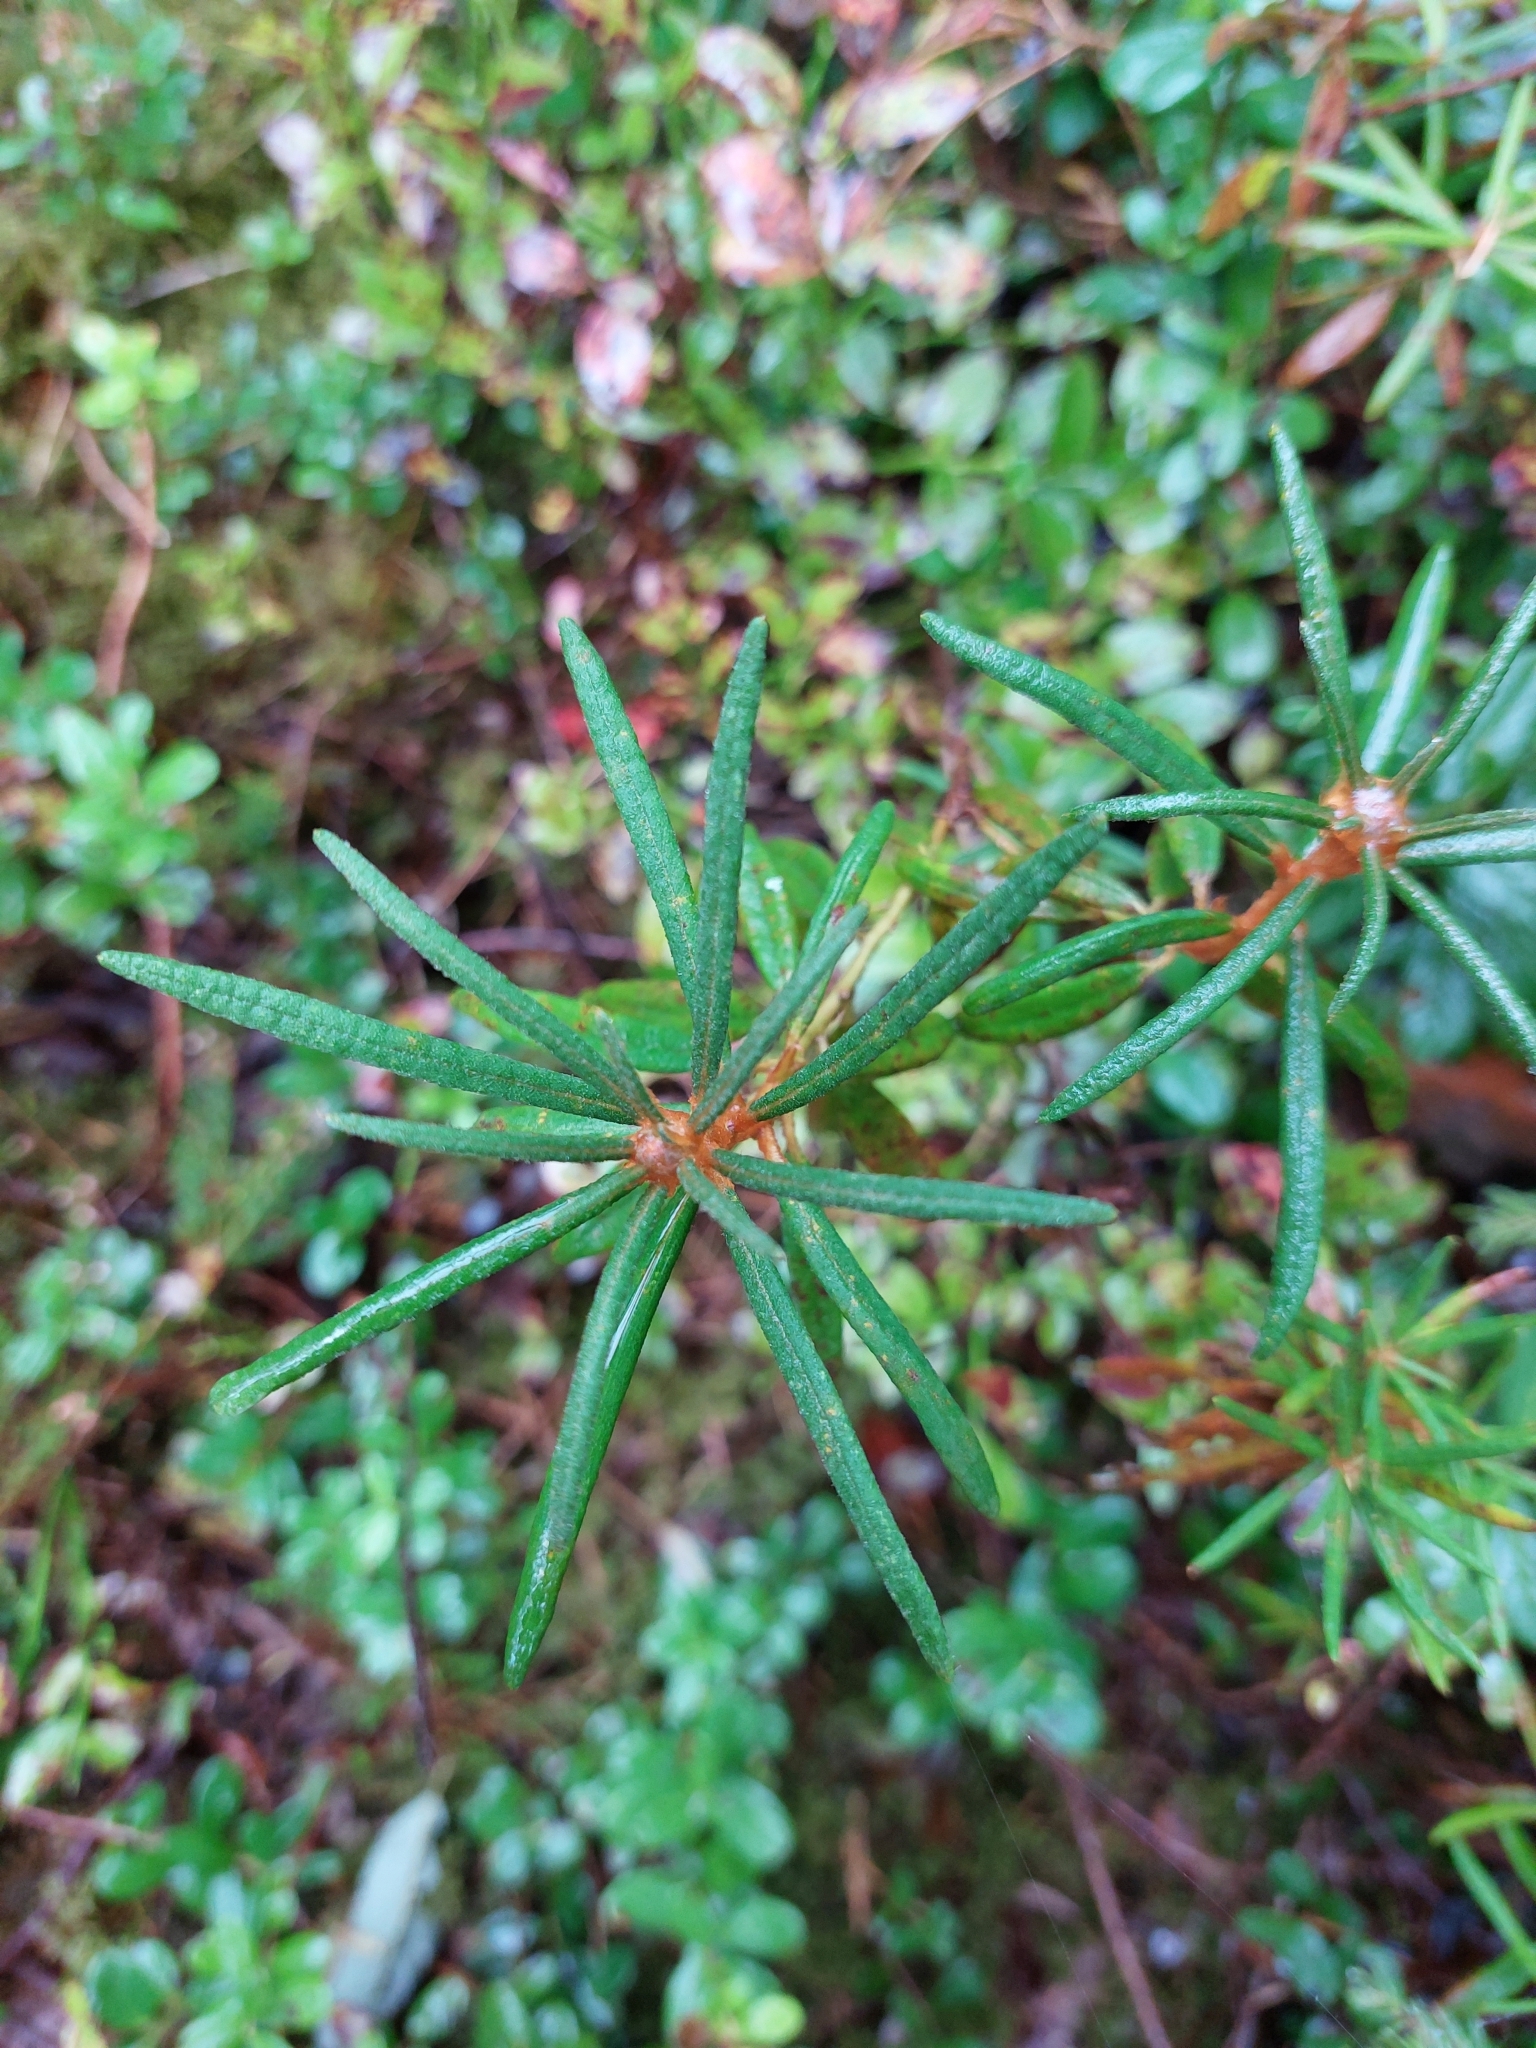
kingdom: Plantae
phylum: Tracheophyta
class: Magnoliopsida
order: Ericales
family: Ericaceae
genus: Rhododendron
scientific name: Rhododendron tomentosum
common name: Marsh labrador tea
